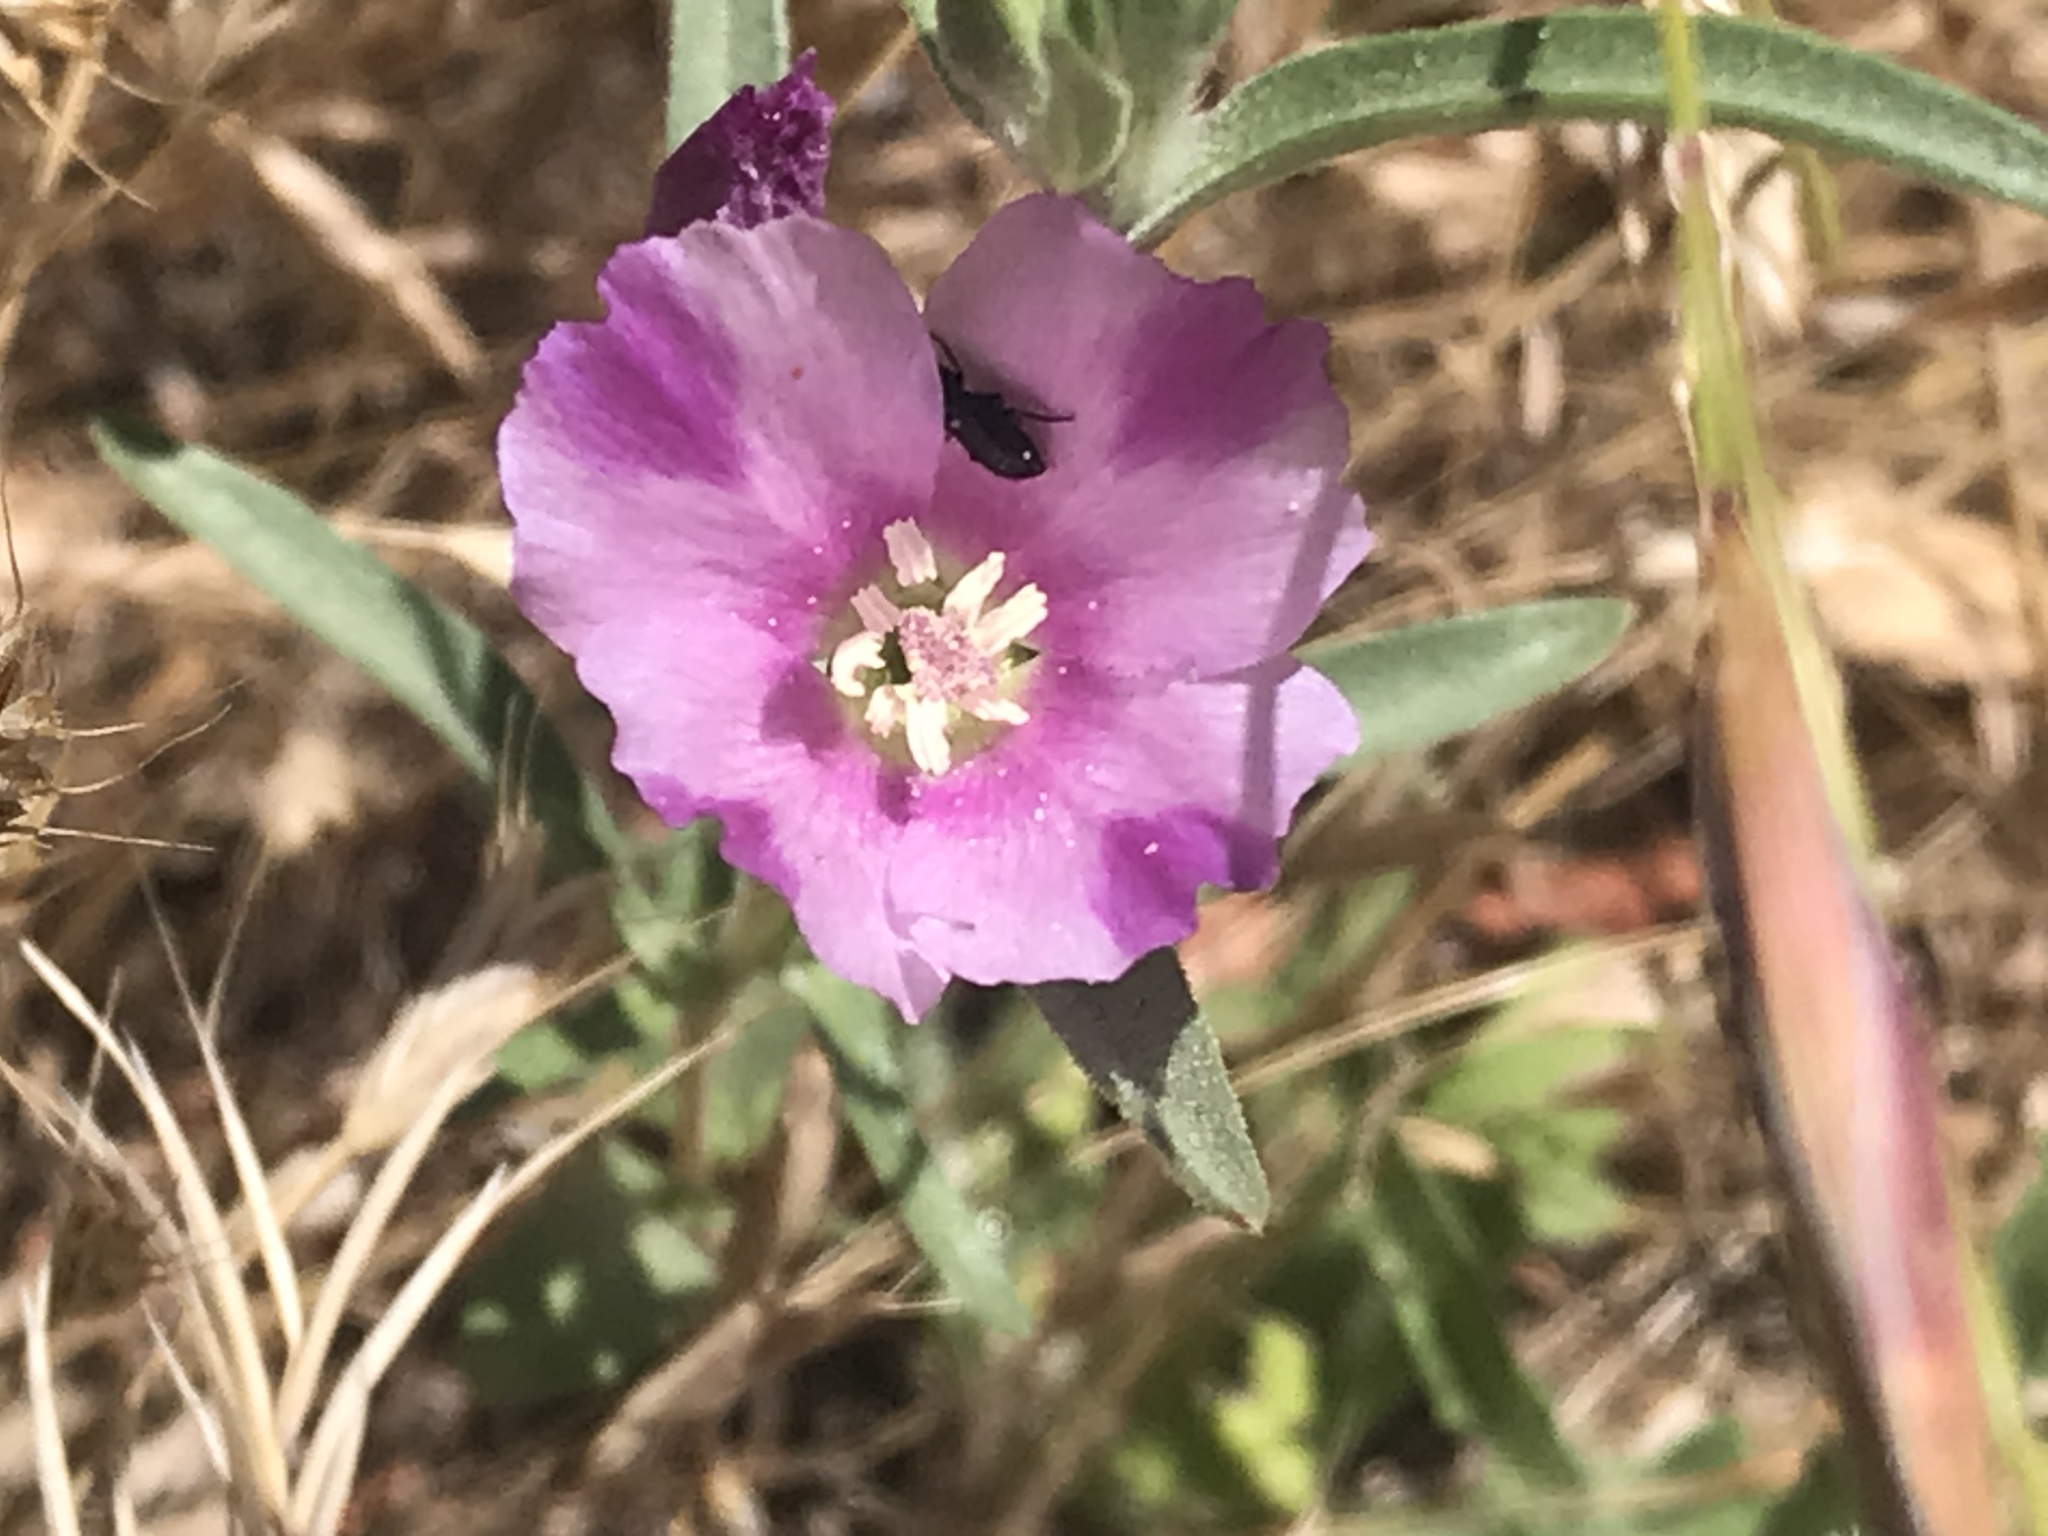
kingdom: Plantae
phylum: Tracheophyta
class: Magnoliopsida
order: Myrtales
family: Onagraceae
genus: Clarkia
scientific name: Clarkia purpurea
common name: Purple clarkia
